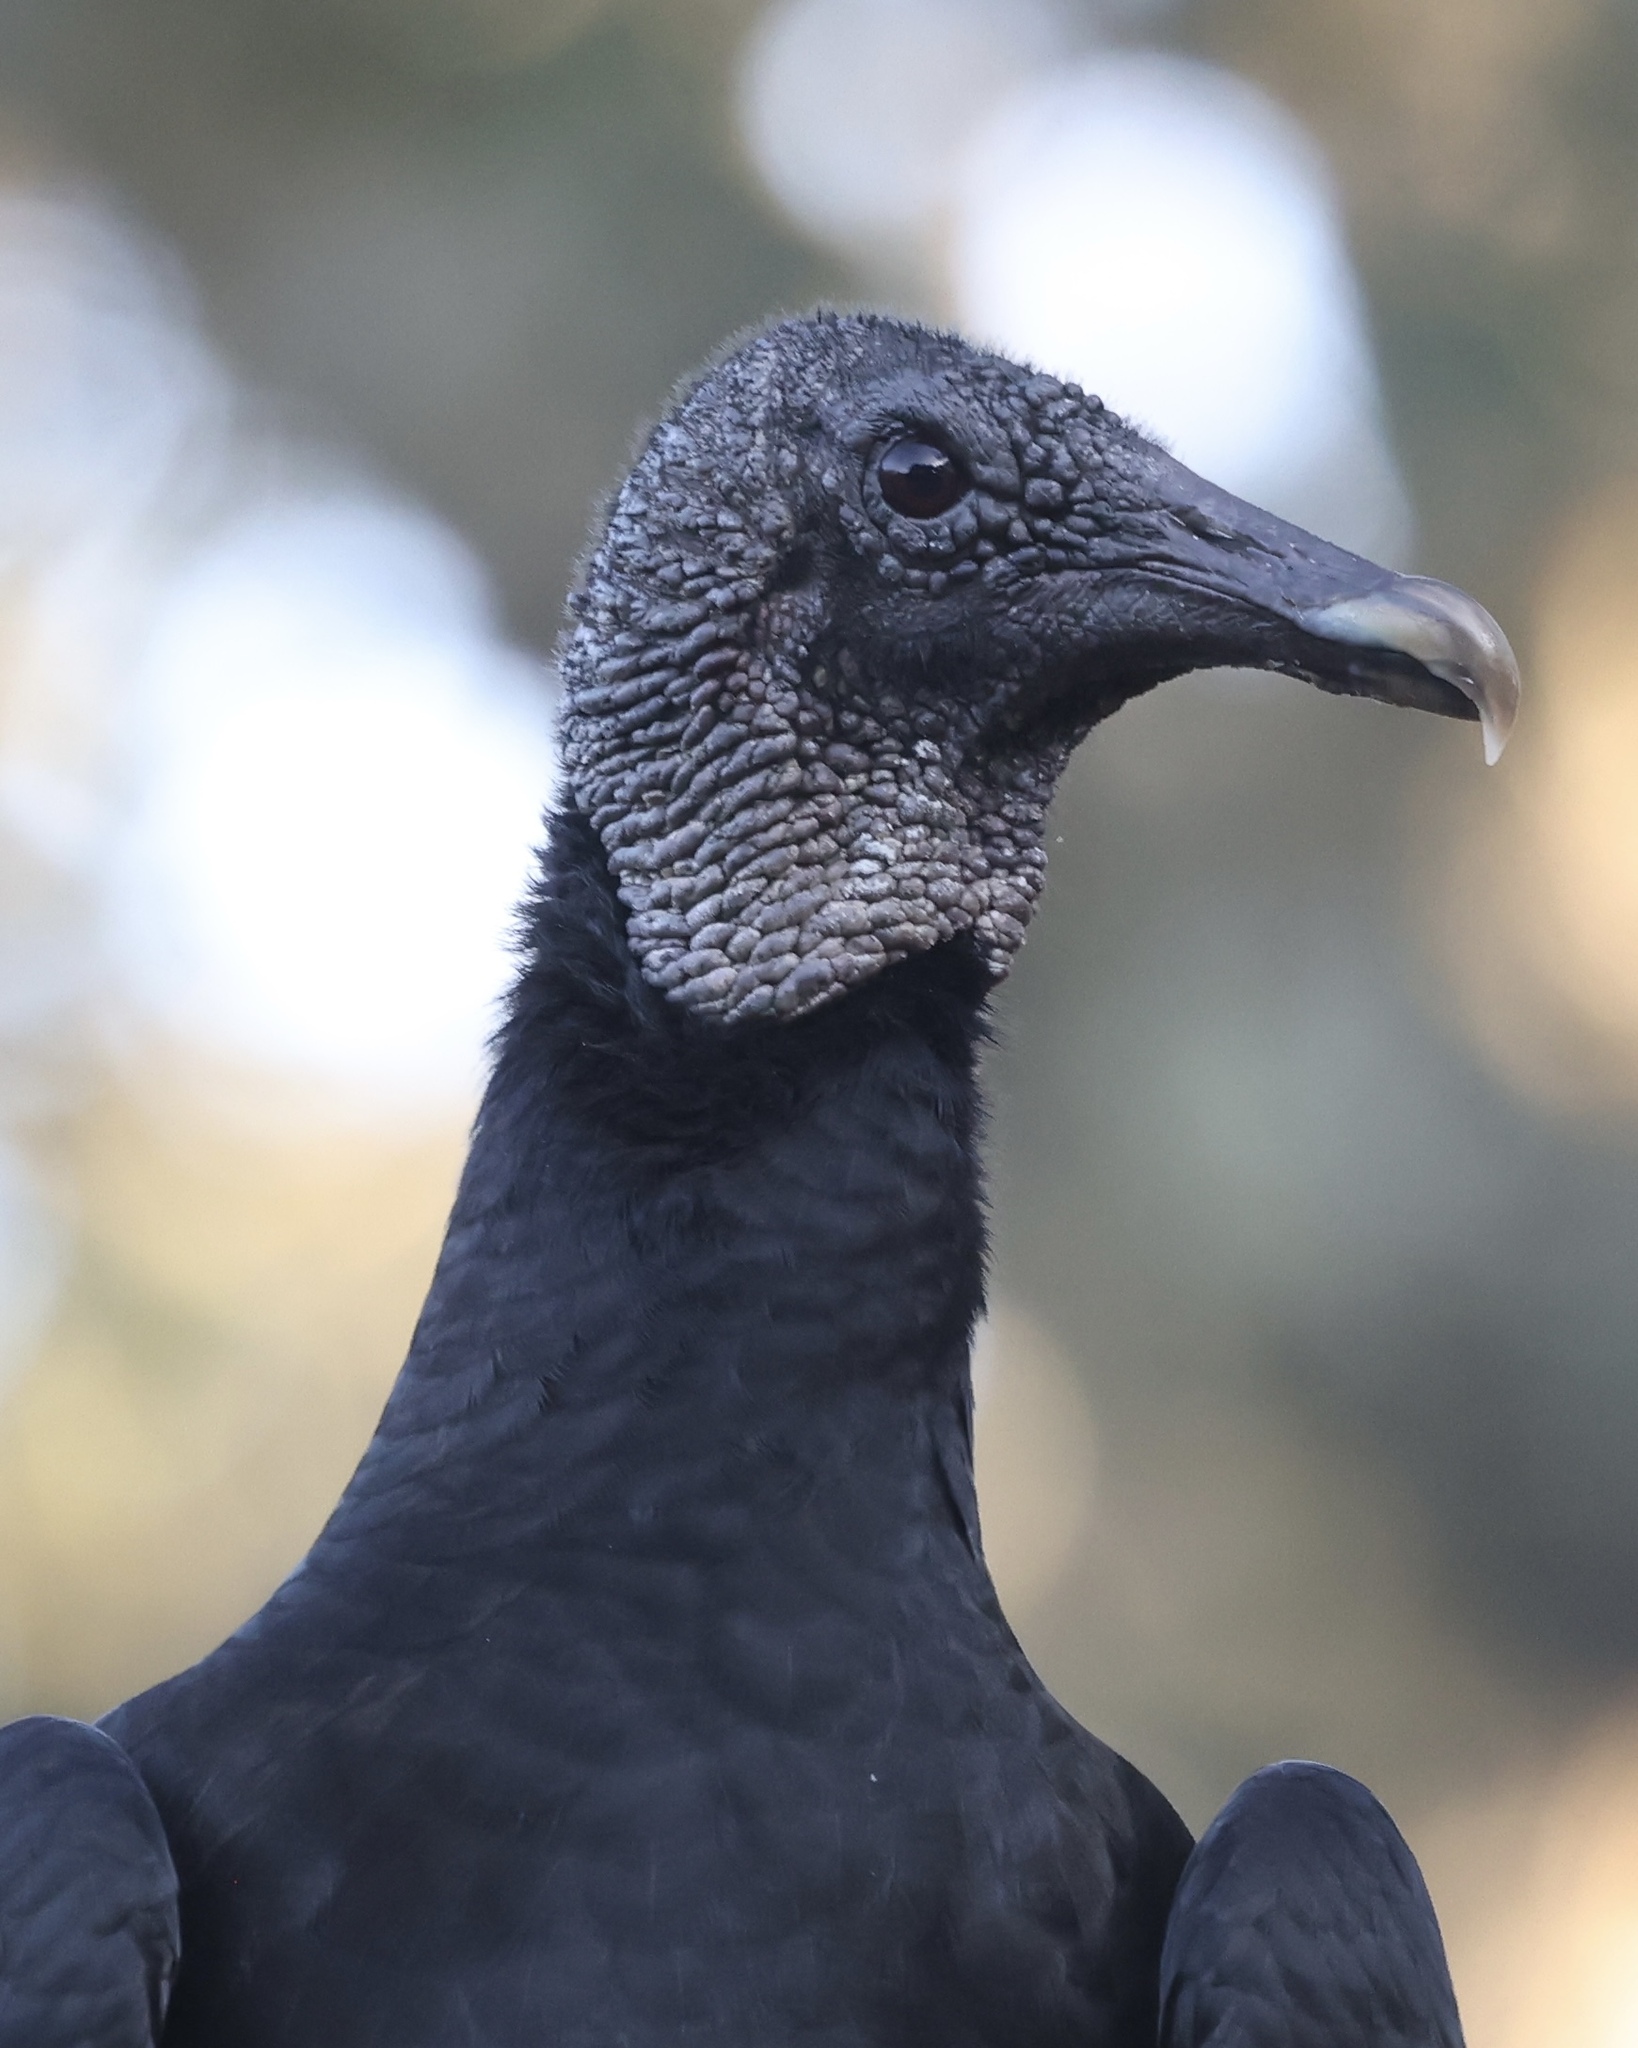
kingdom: Animalia
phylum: Chordata
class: Aves
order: Accipitriformes
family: Cathartidae
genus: Coragyps
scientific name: Coragyps atratus
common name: Black vulture
